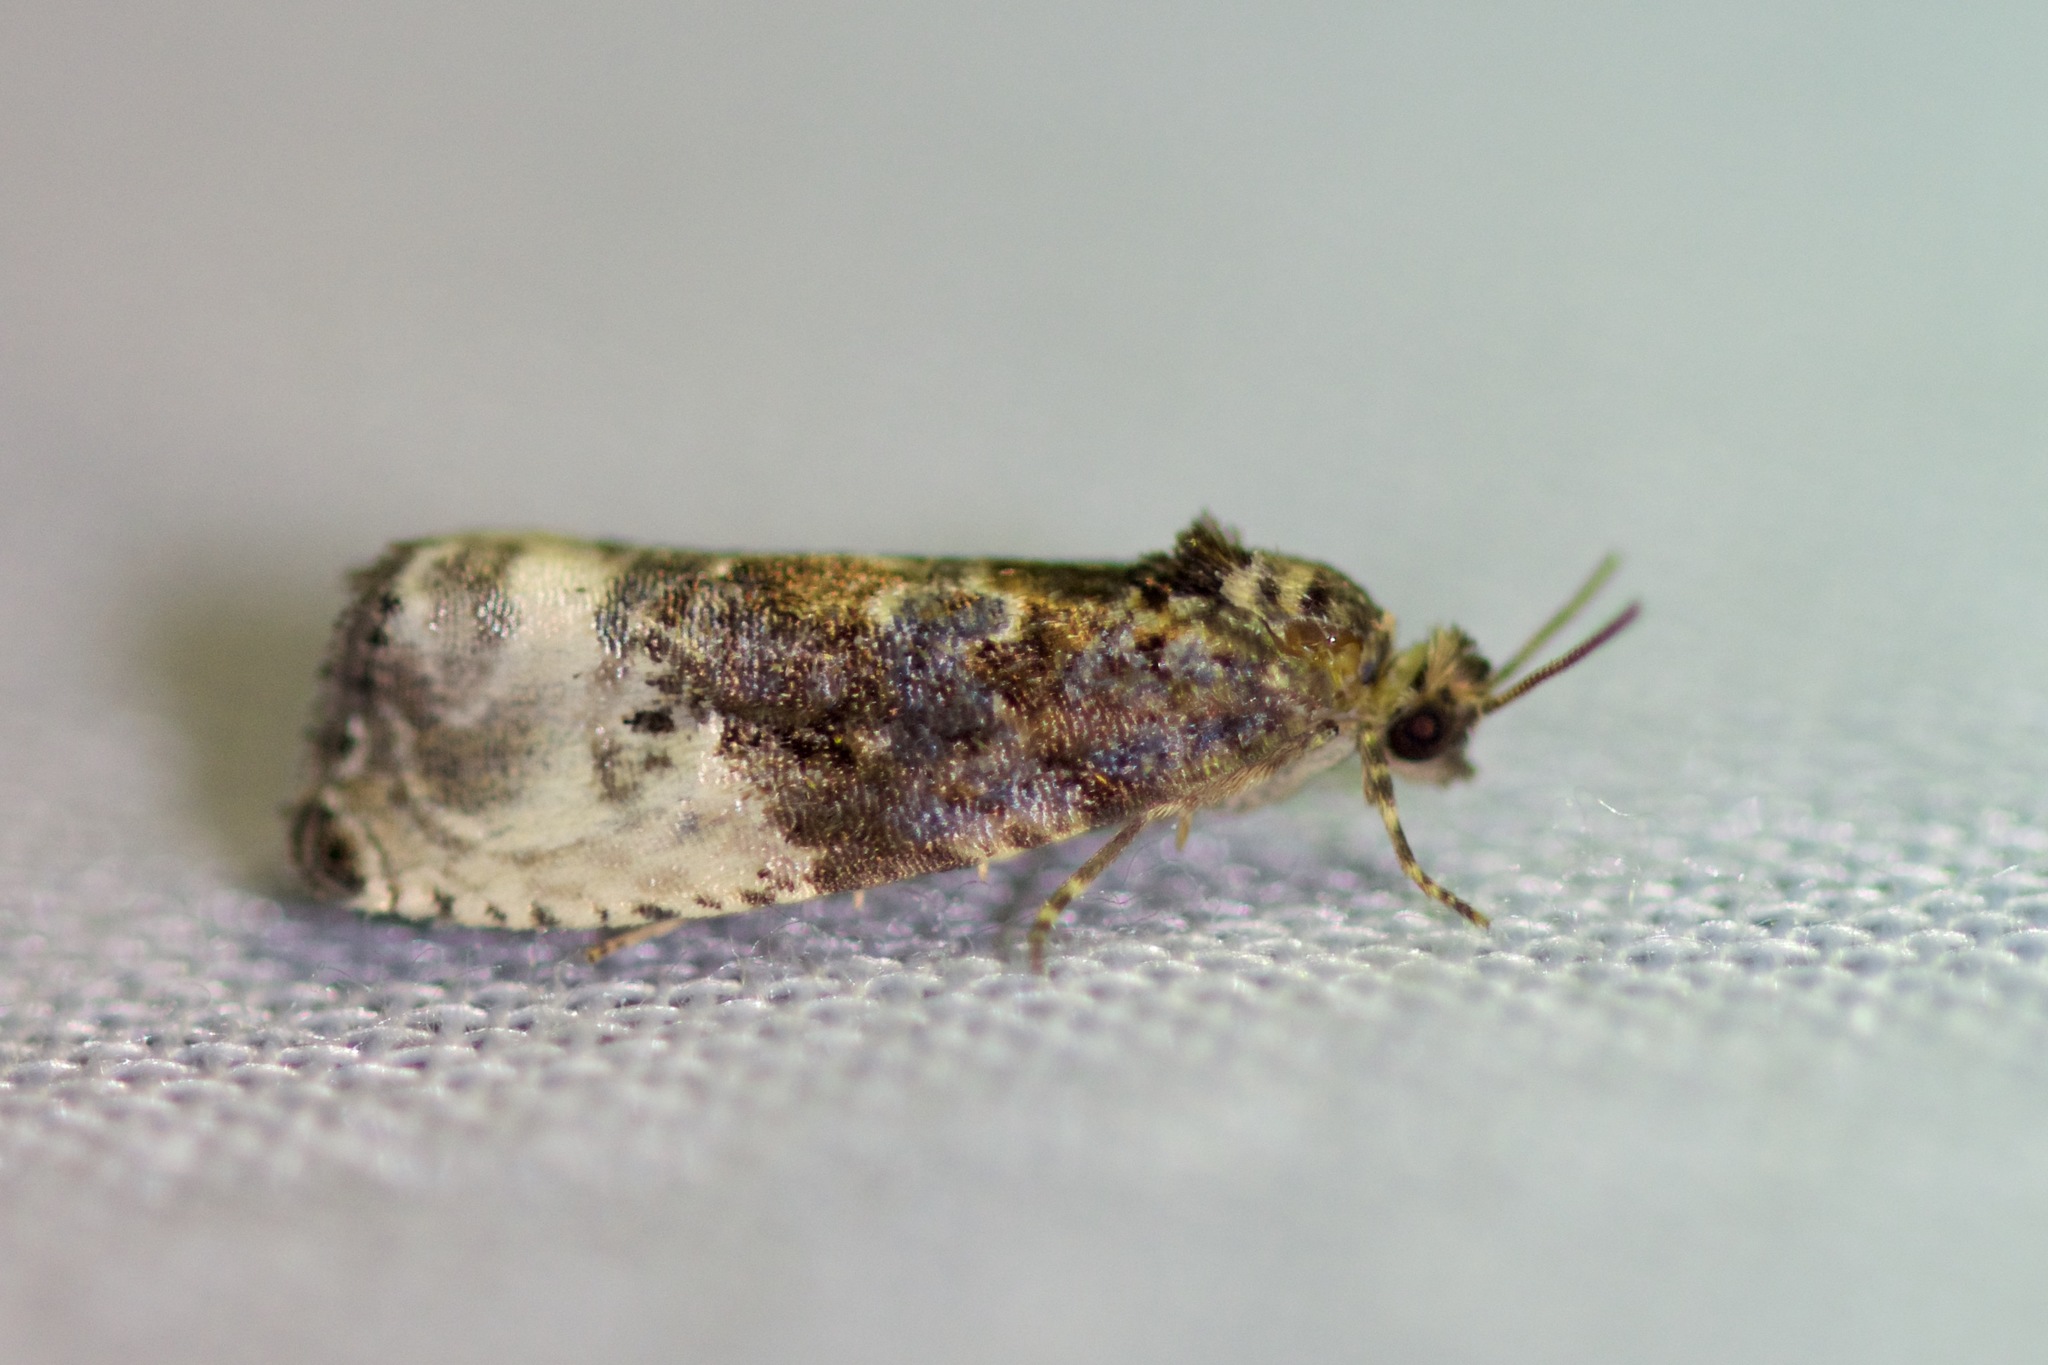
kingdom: Animalia
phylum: Arthropoda
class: Insecta
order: Lepidoptera
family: Tortricidae
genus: Hedya
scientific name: Hedya nubiferana
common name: Marbled orchard tortrix
